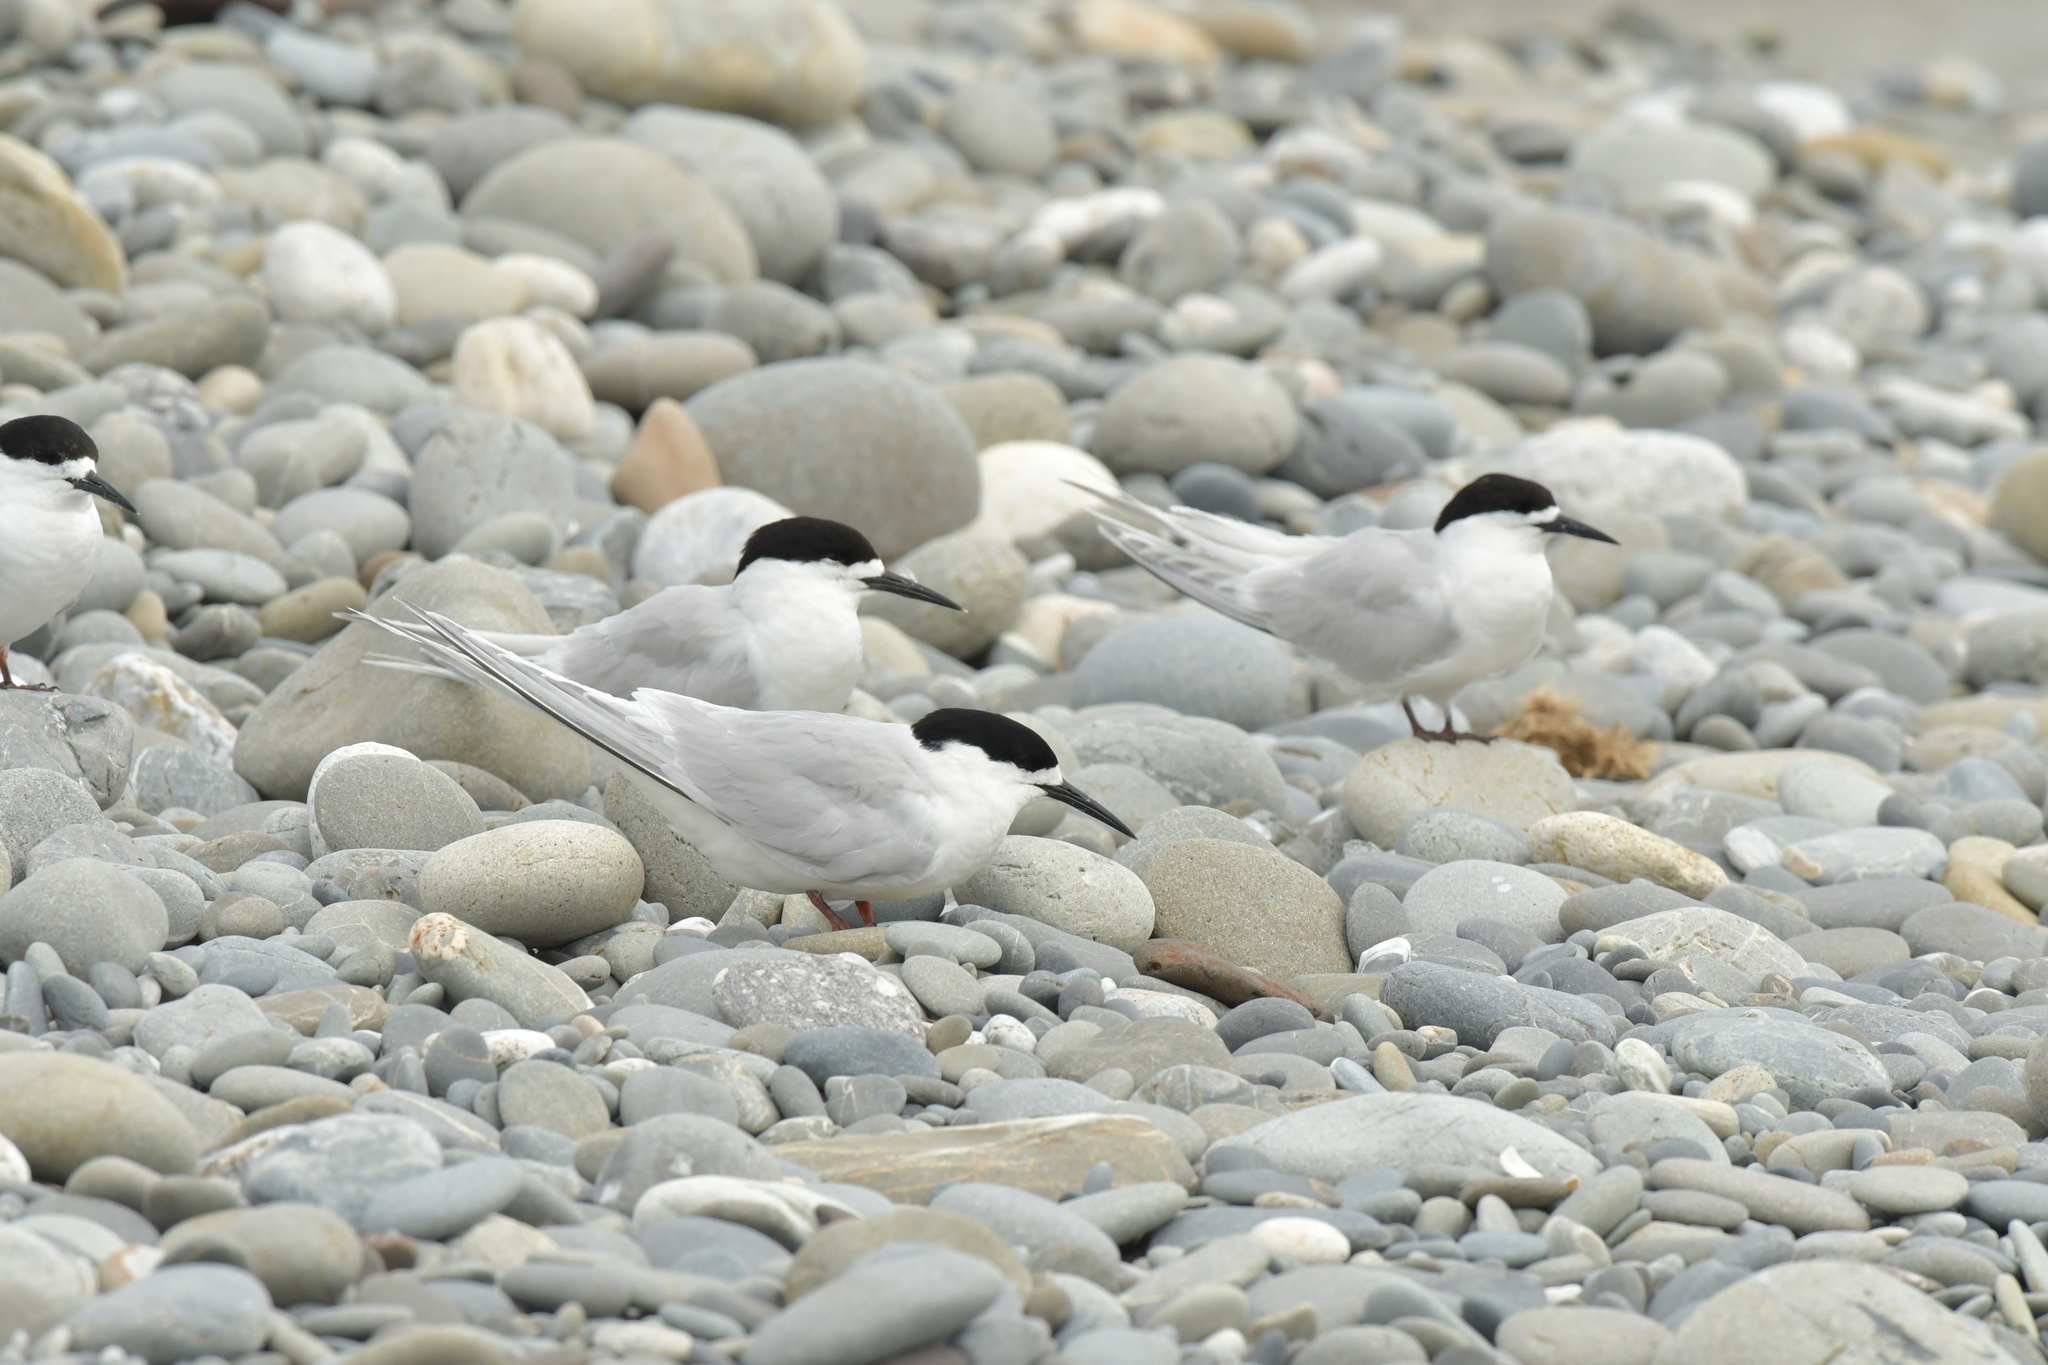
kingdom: Animalia
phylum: Chordata
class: Aves
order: Charadriiformes
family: Laridae
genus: Sterna
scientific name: Sterna striata
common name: White-fronted tern
